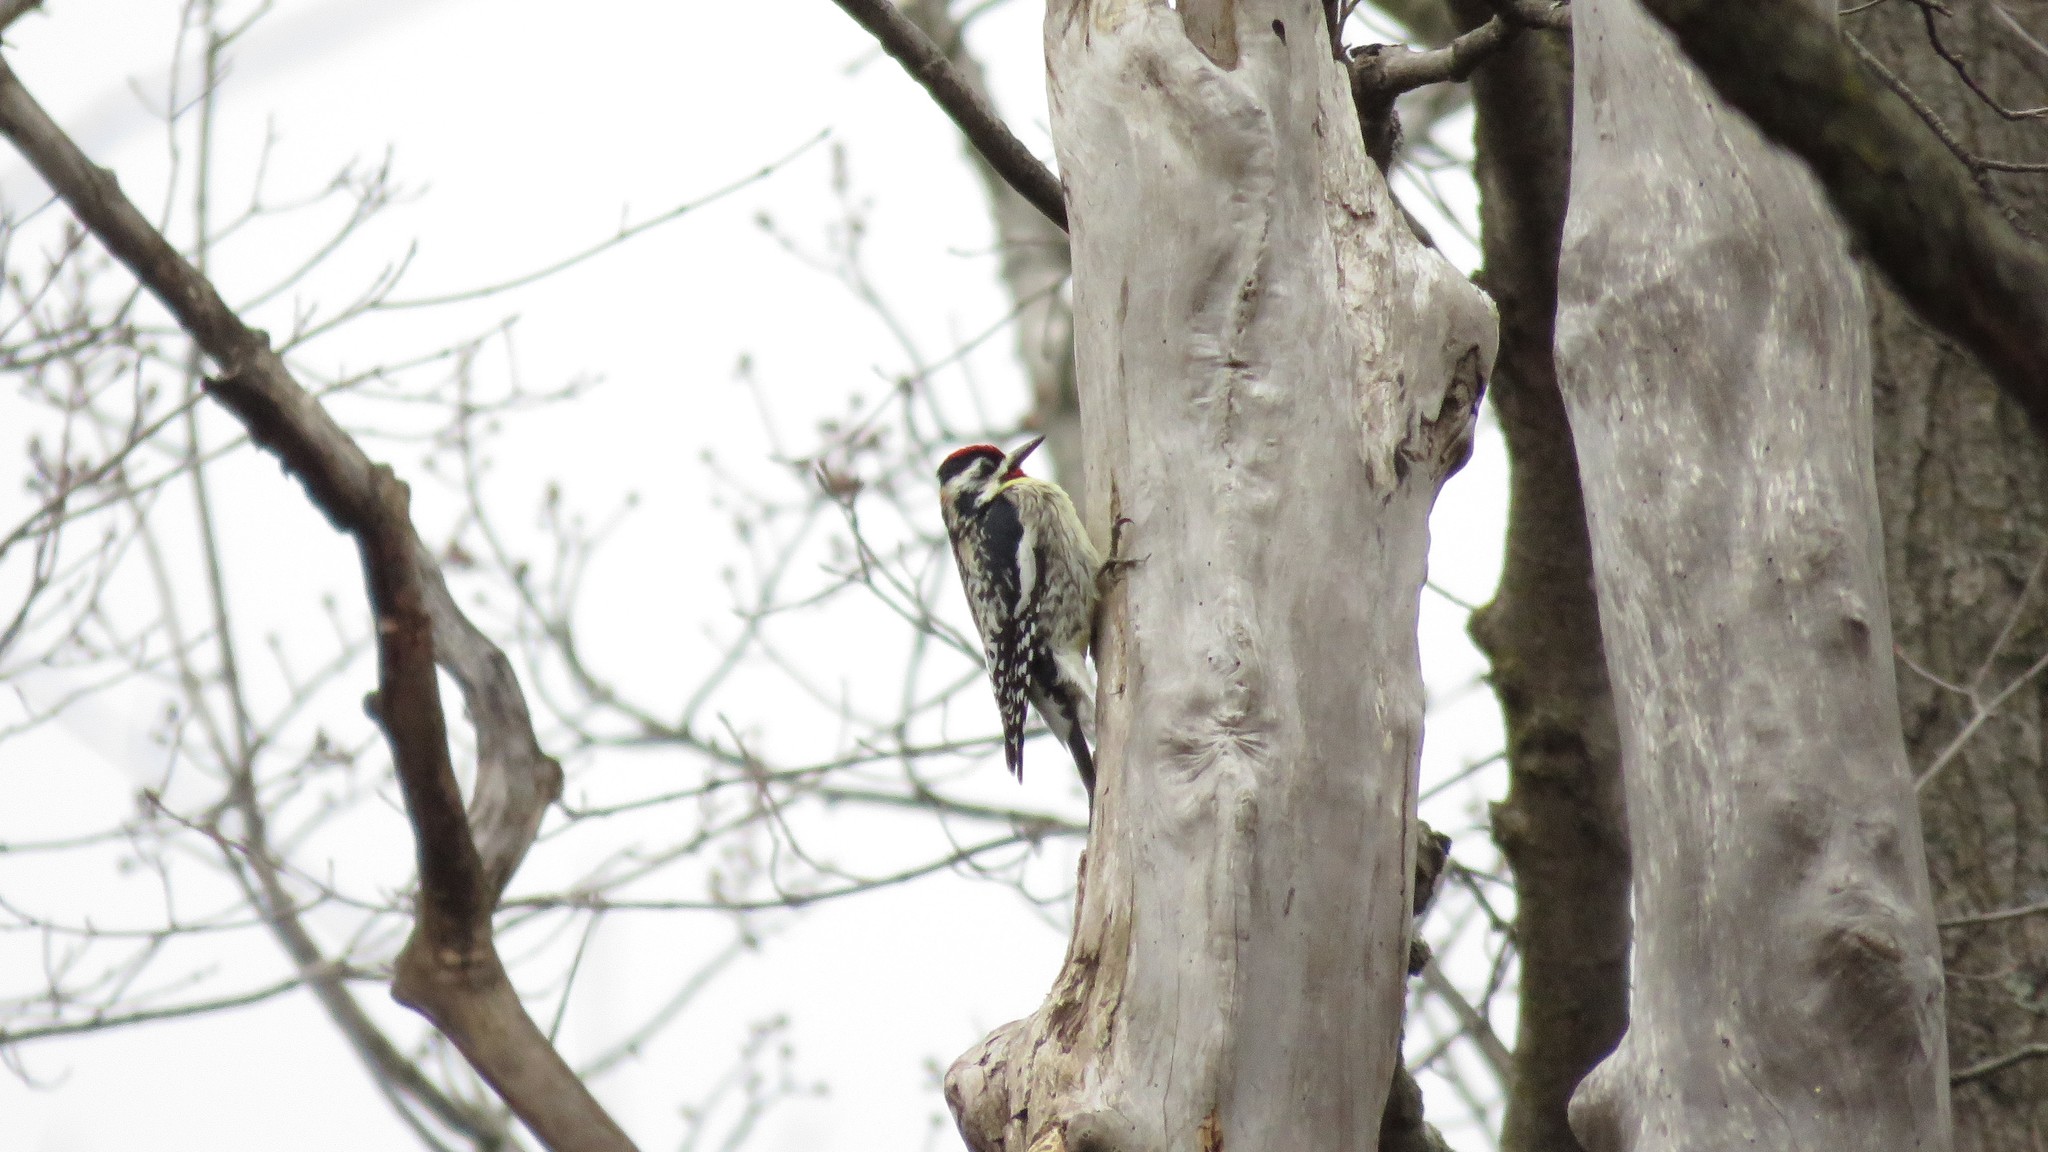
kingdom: Animalia
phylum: Chordata
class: Aves
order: Piciformes
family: Picidae
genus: Sphyrapicus
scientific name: Sphyrapicus varius
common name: Yellow-bellied sapsucker
